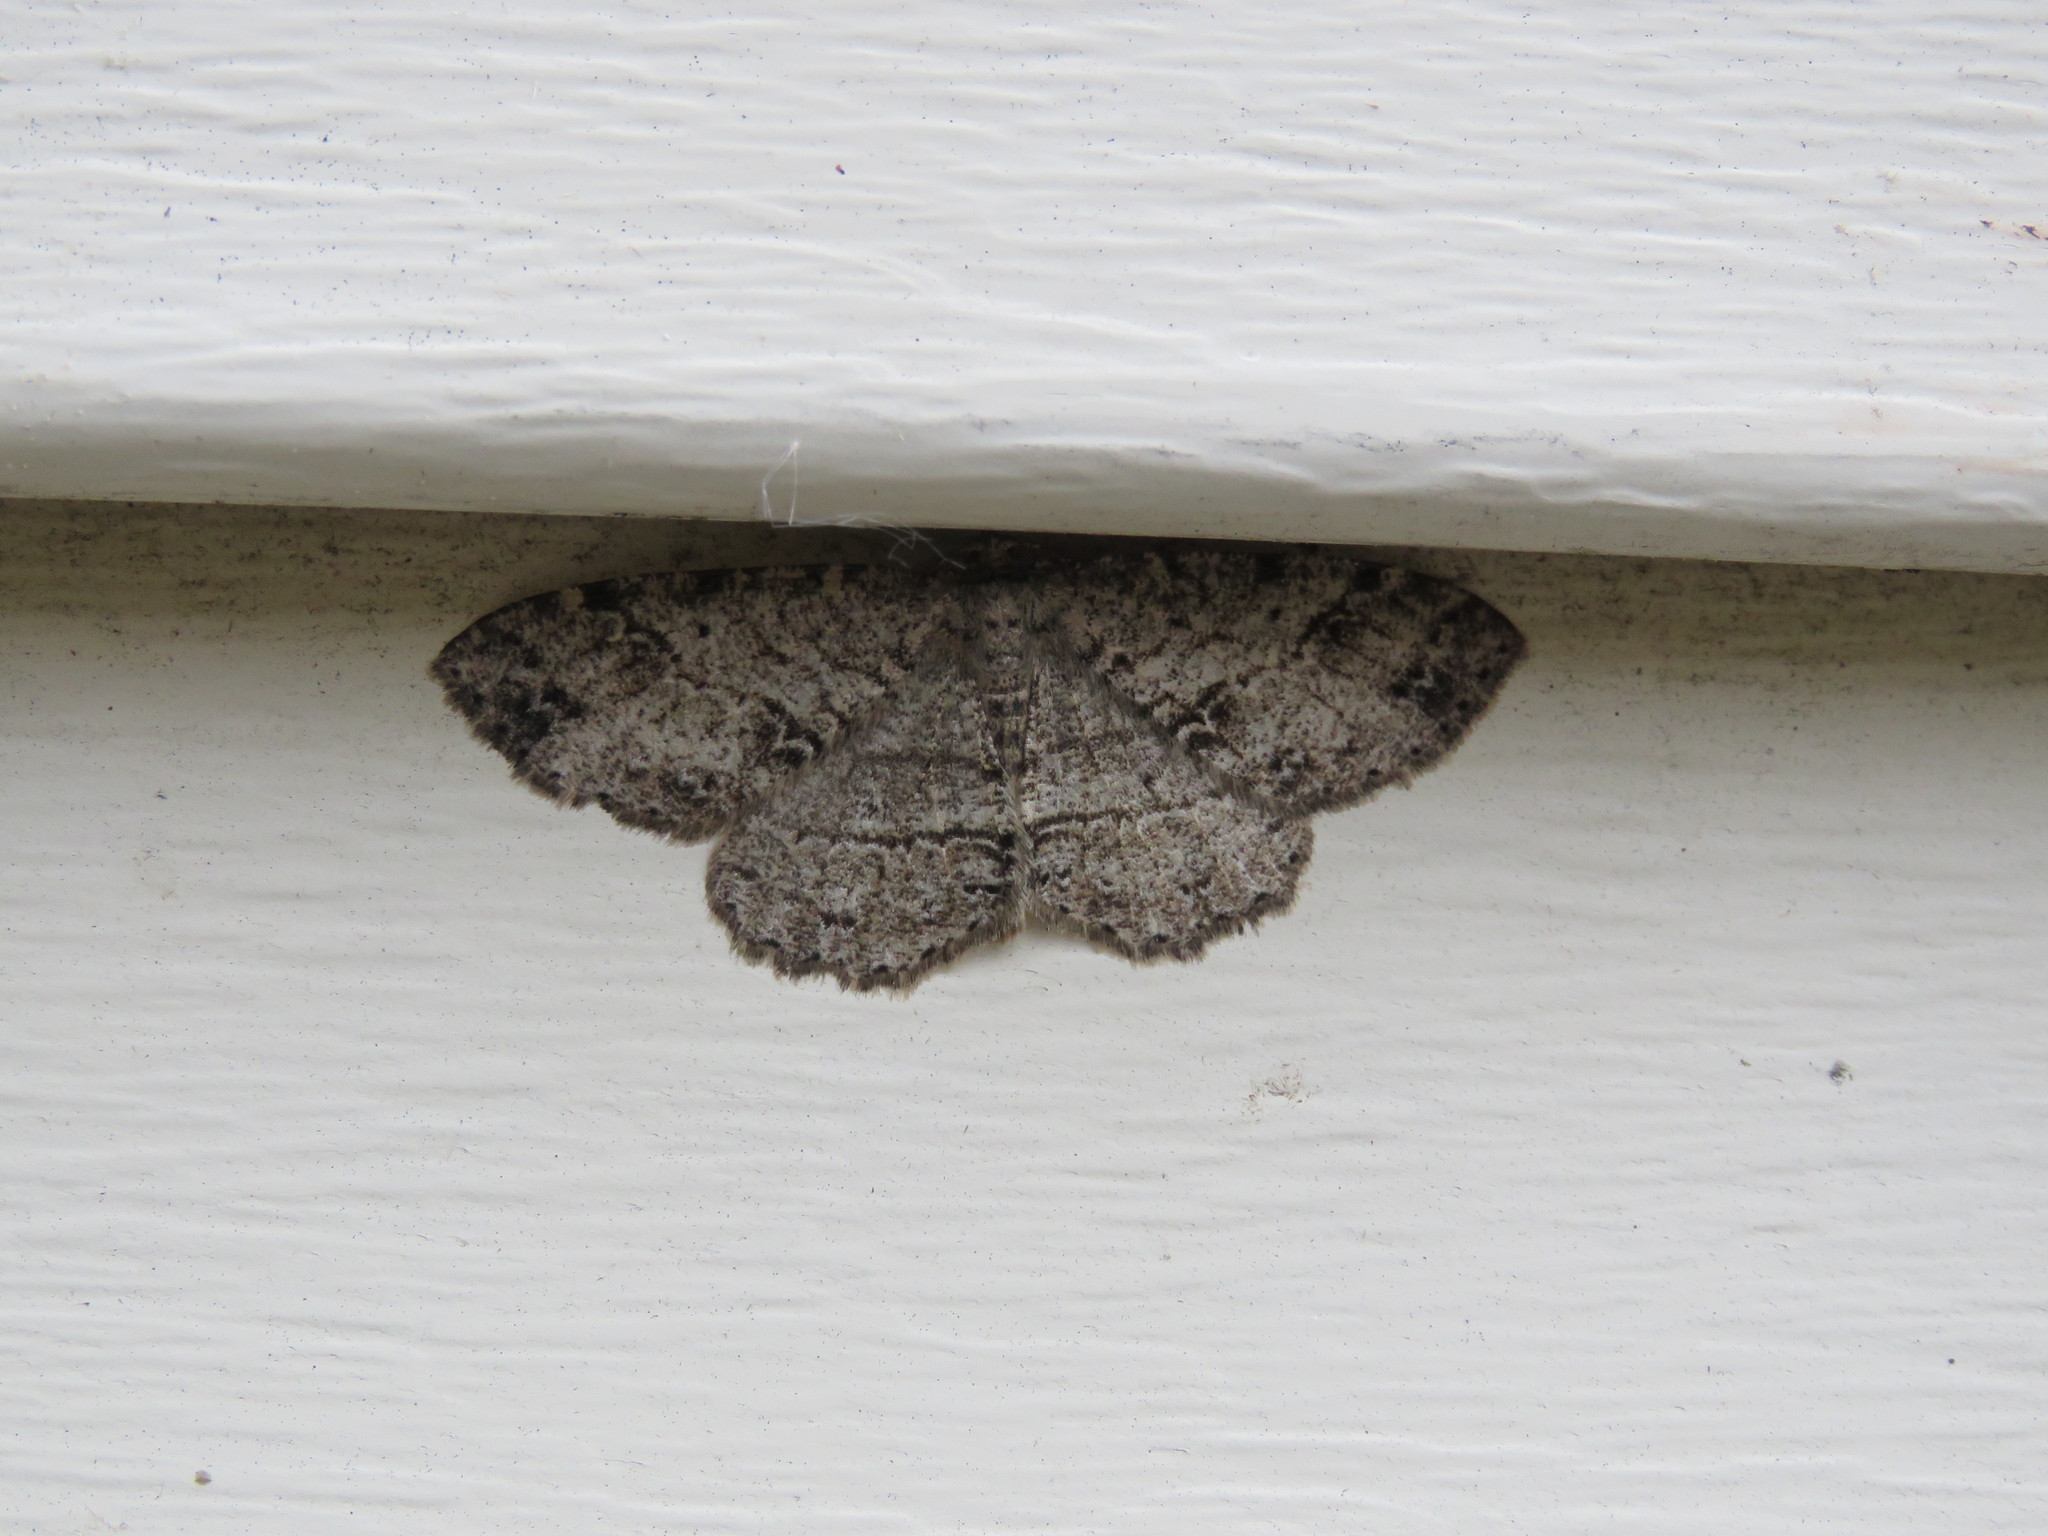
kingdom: Animalia
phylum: Arthropoda
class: Insecta
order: Lepidoptera
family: Geometridae
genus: Melanolophia
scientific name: Melanolophia canadaria
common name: Canadian melanolophia
